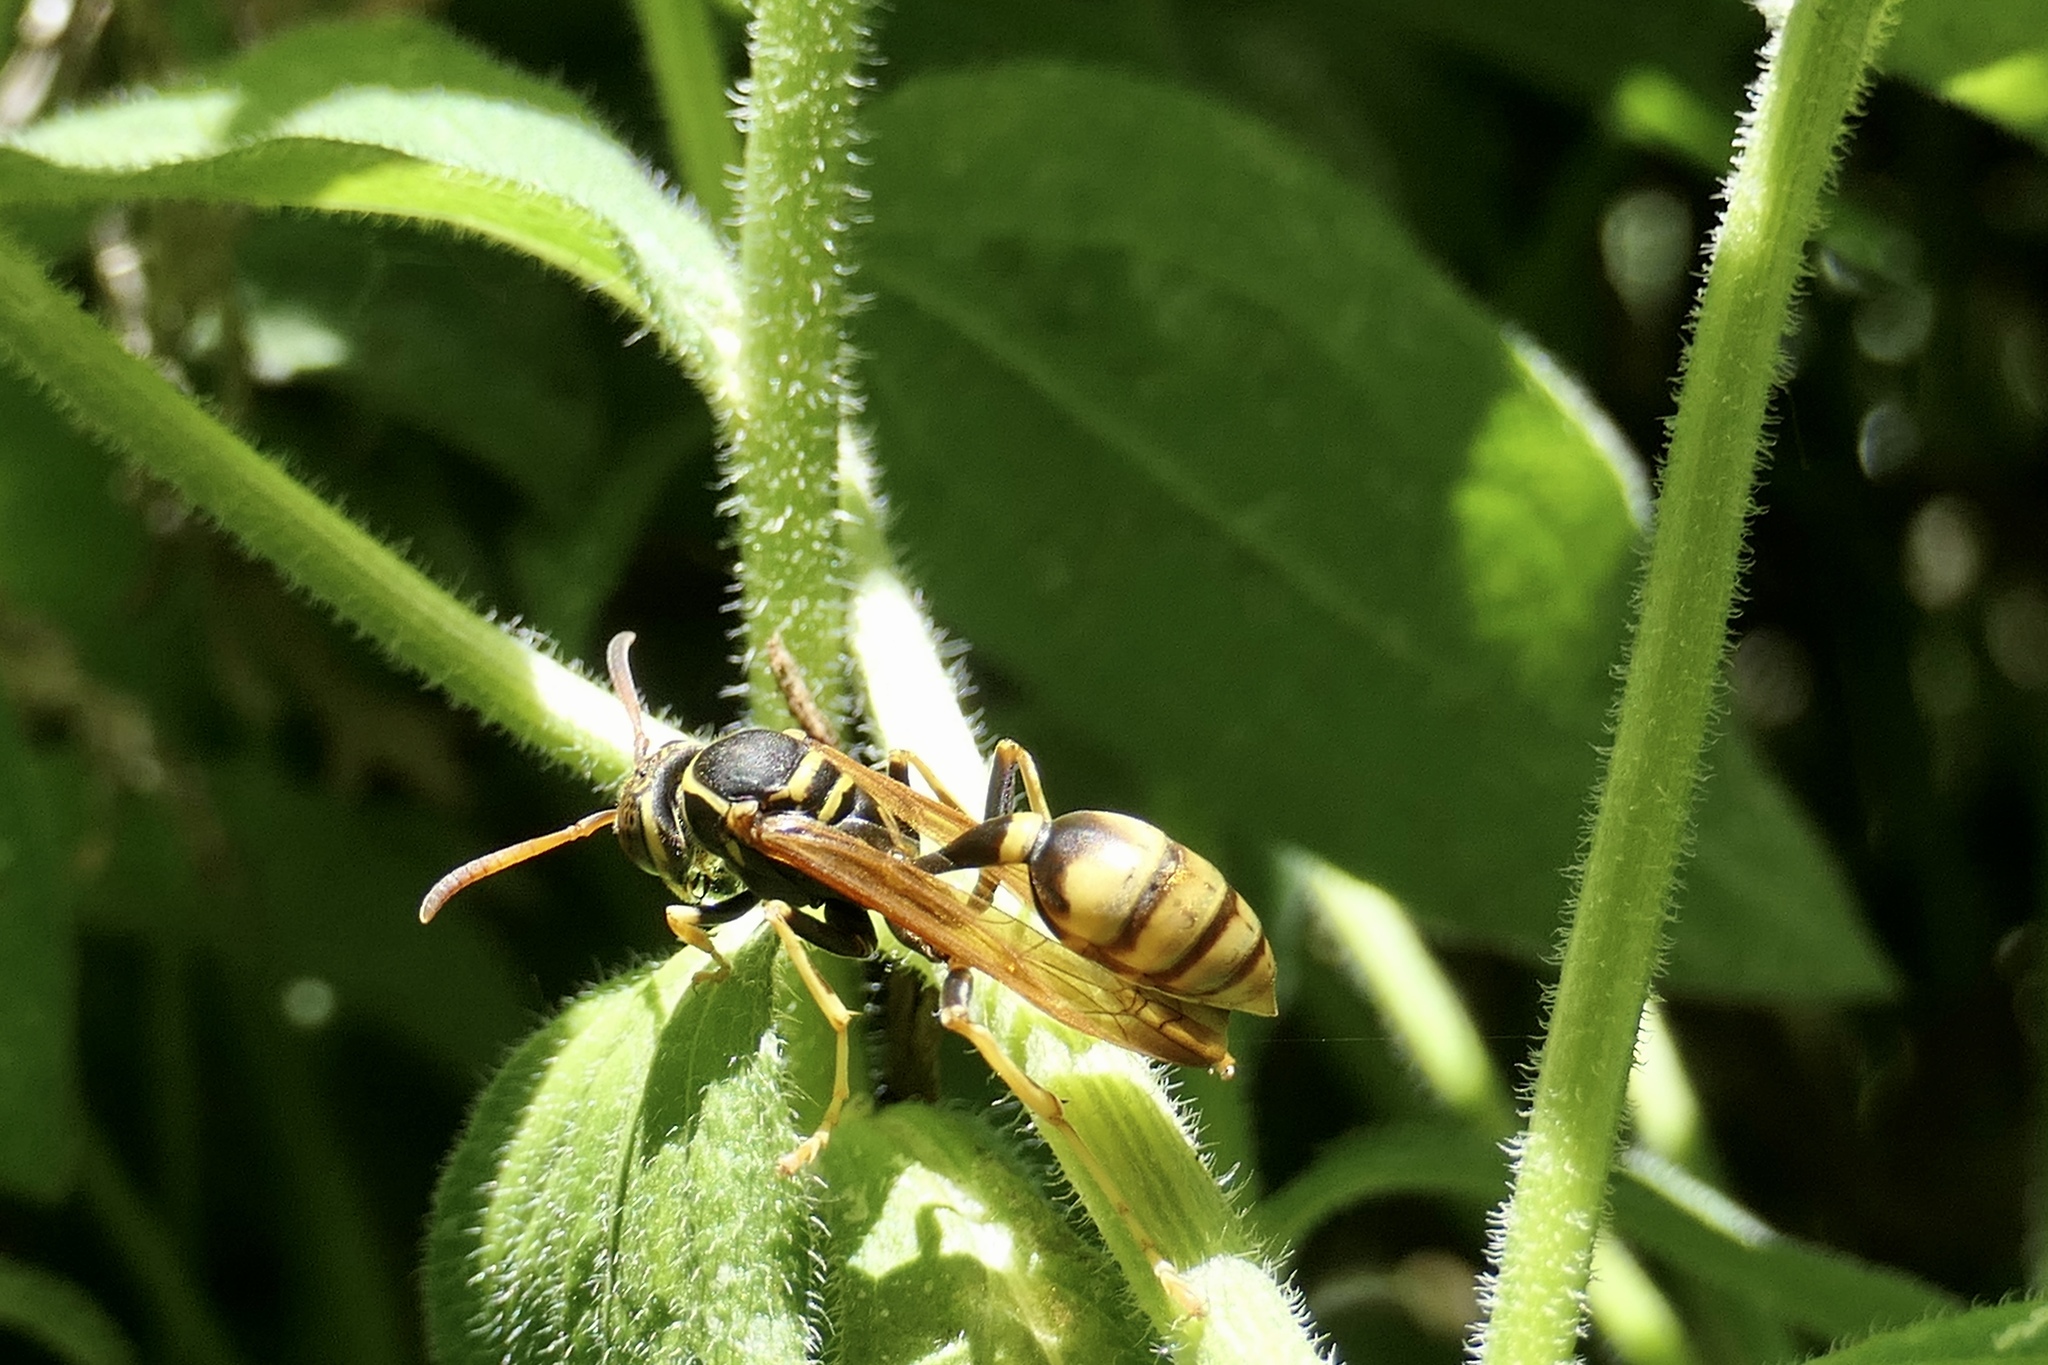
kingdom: Animalia
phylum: Arthropoda
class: Insecta
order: Hymenoptera
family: Vespidae
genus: Mischocyttarus
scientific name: Mischocyttarus flavitarsis
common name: Wasp
